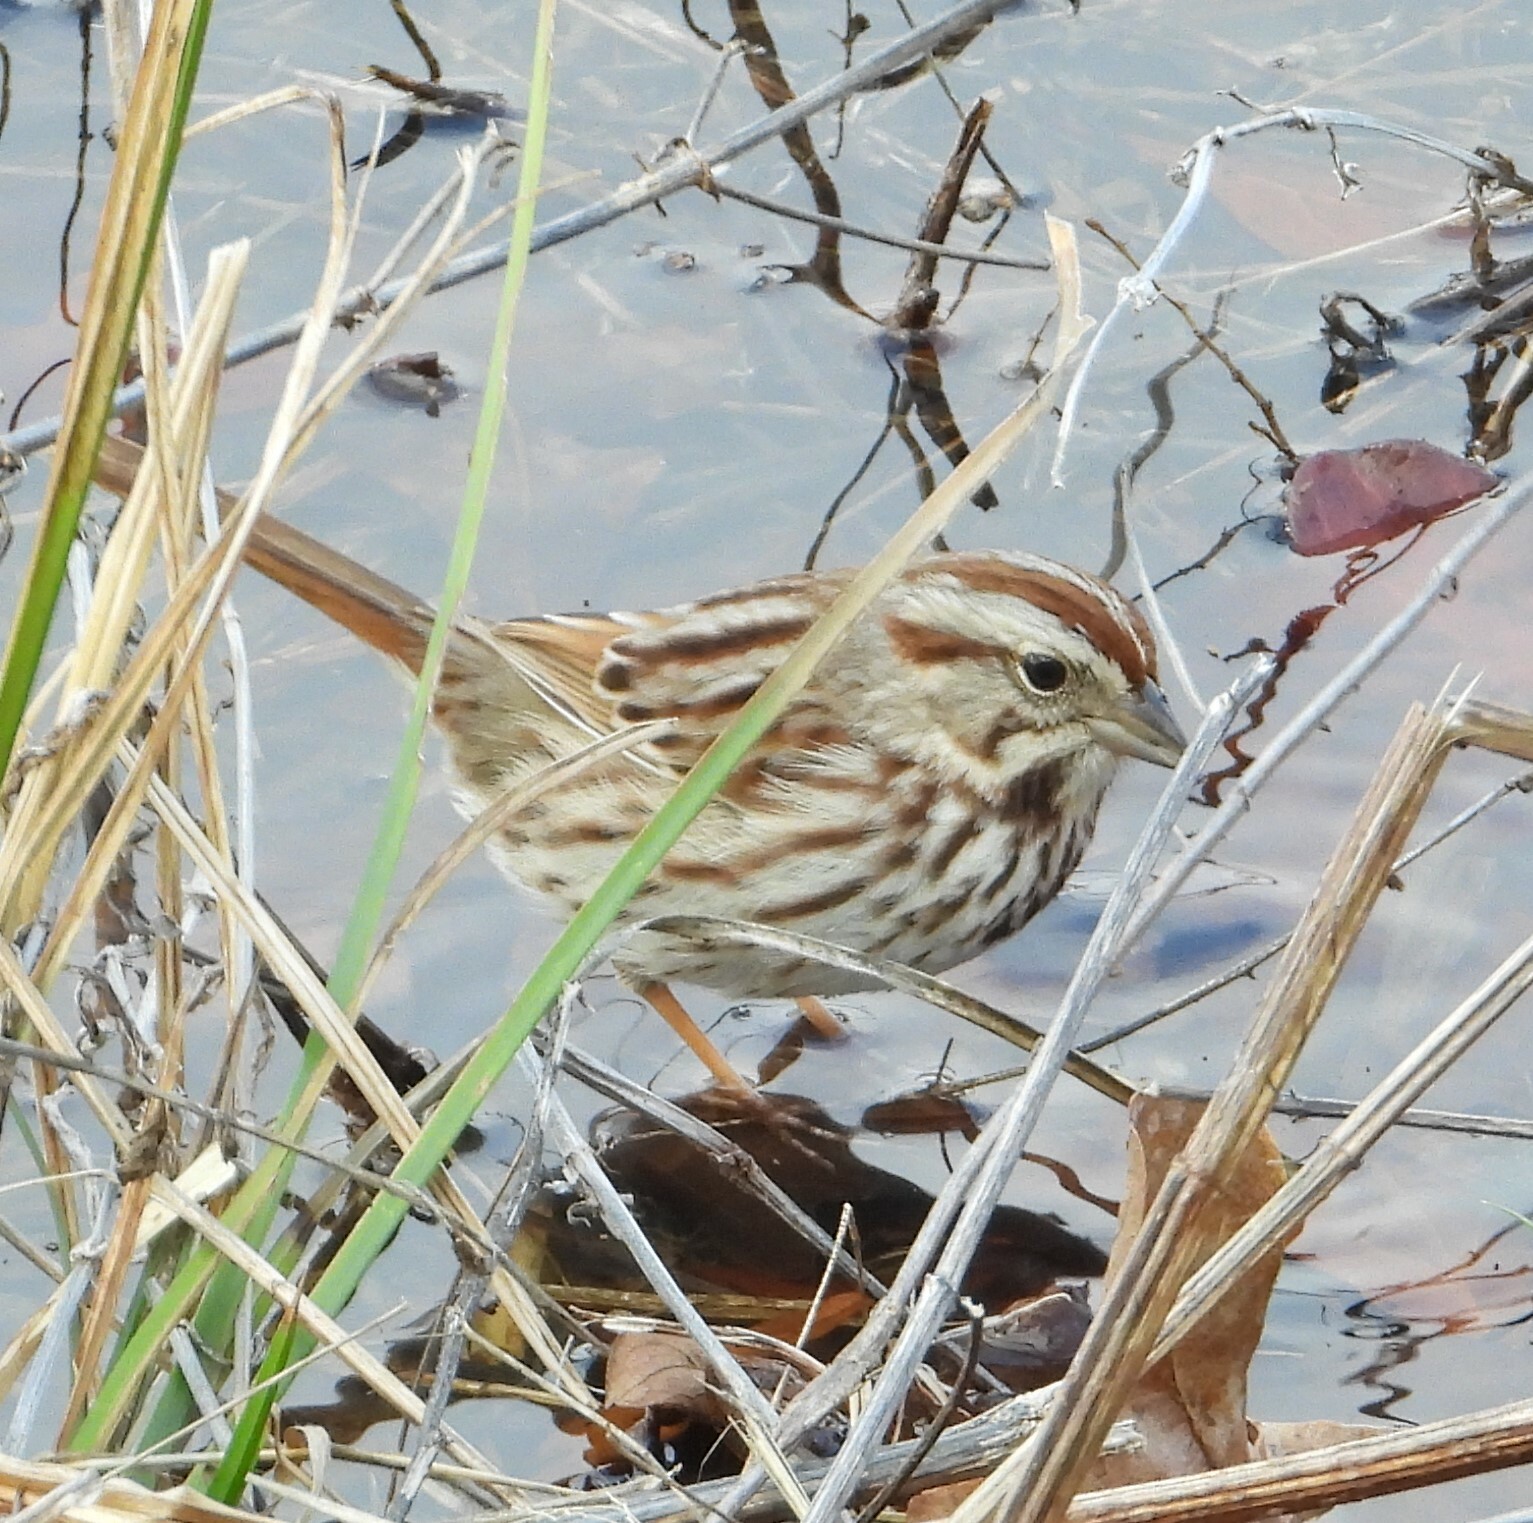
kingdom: Animalia
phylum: Chordata
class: Aves
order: Passeriformes
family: Passerellidae
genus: Melospiza
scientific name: Melospiza melodia
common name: Song sparrow
